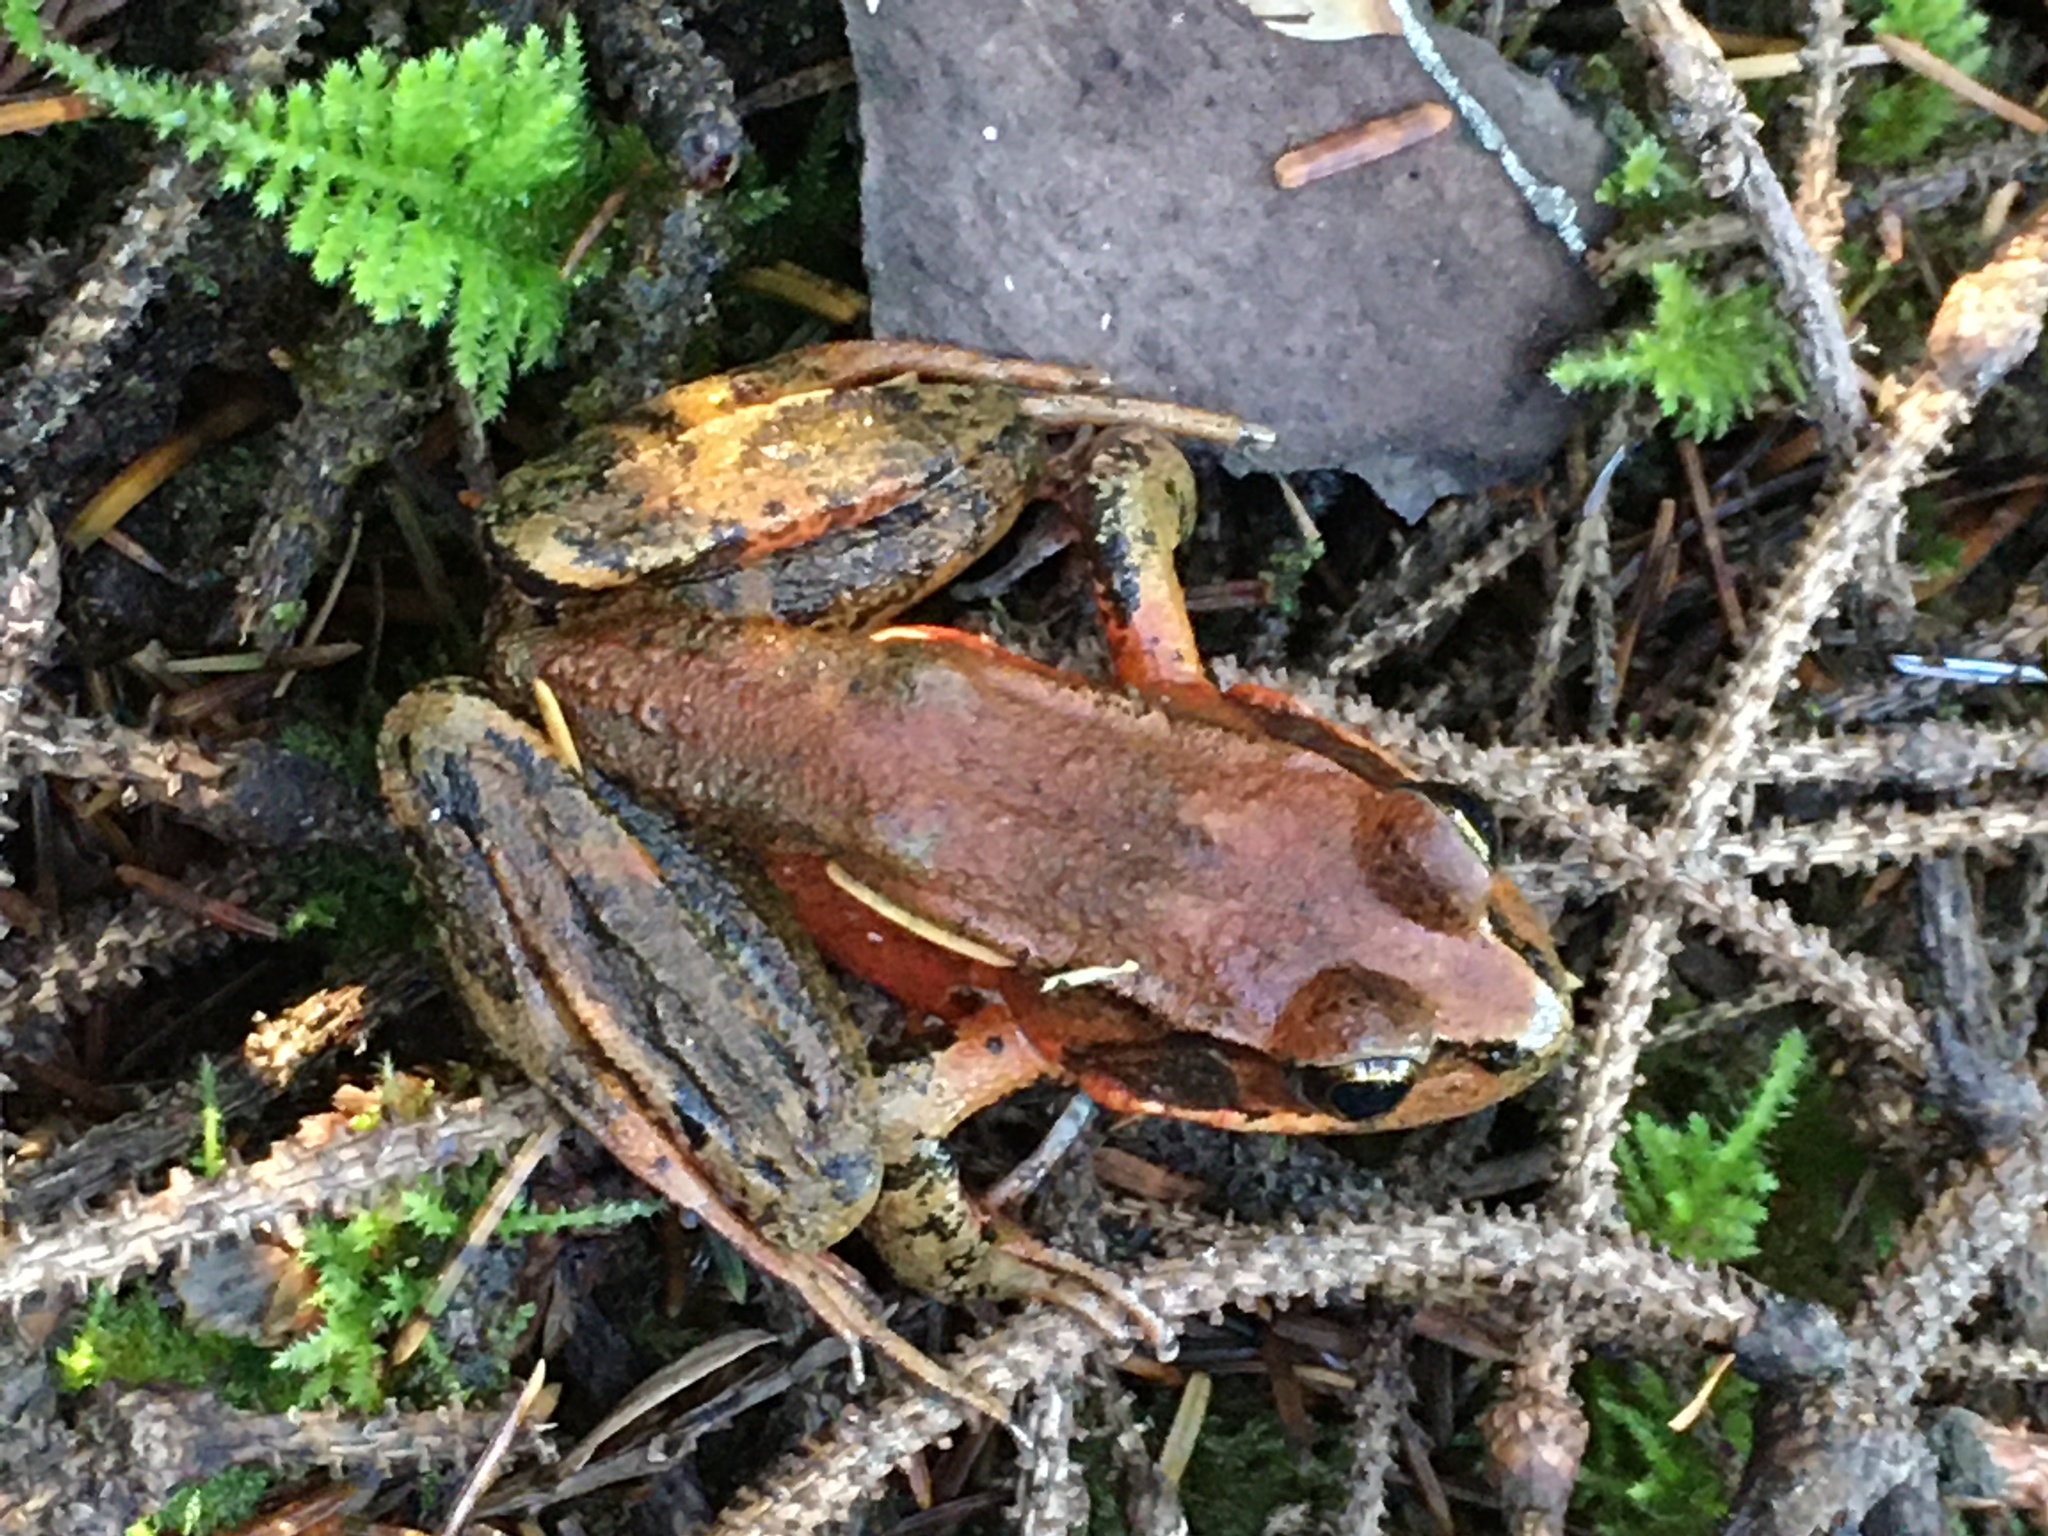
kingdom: Animalia
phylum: Chordata
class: Amphibia
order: Anura
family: Ranidae
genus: Rana
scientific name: Rana aurora
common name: Red-legged frog
